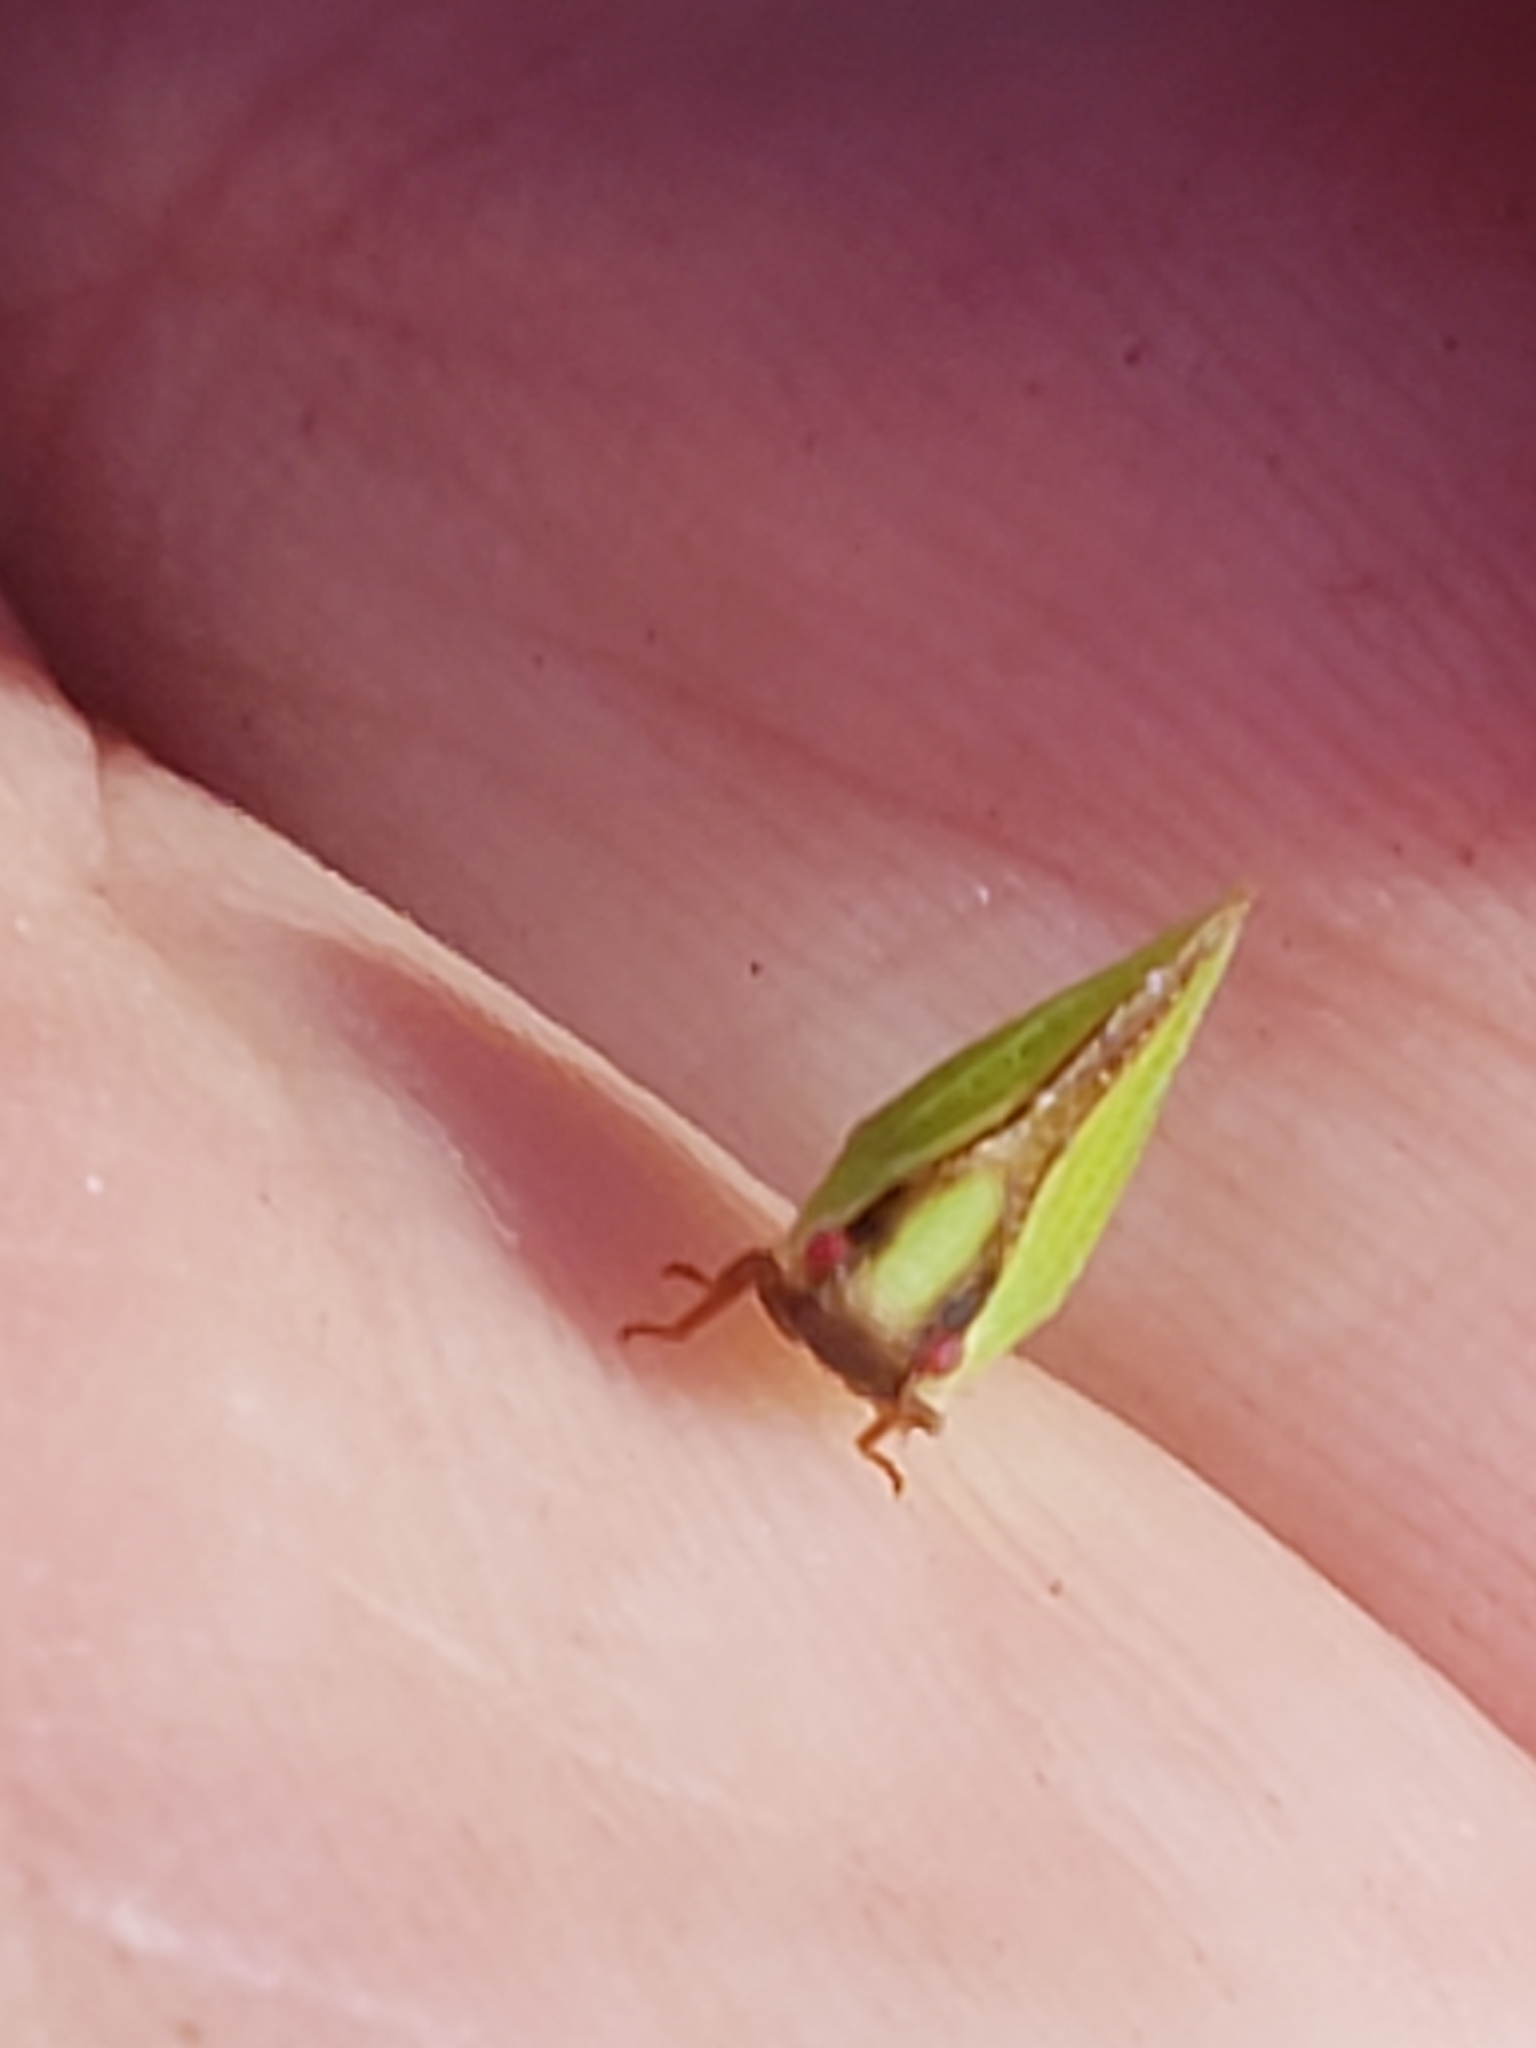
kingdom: Animalia
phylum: Arthropoda
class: Insecta
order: Hemiptera
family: Acanaloniidae
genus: Acanalonia
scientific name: Acanalonia bivittata
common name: Two-striped planthopper
